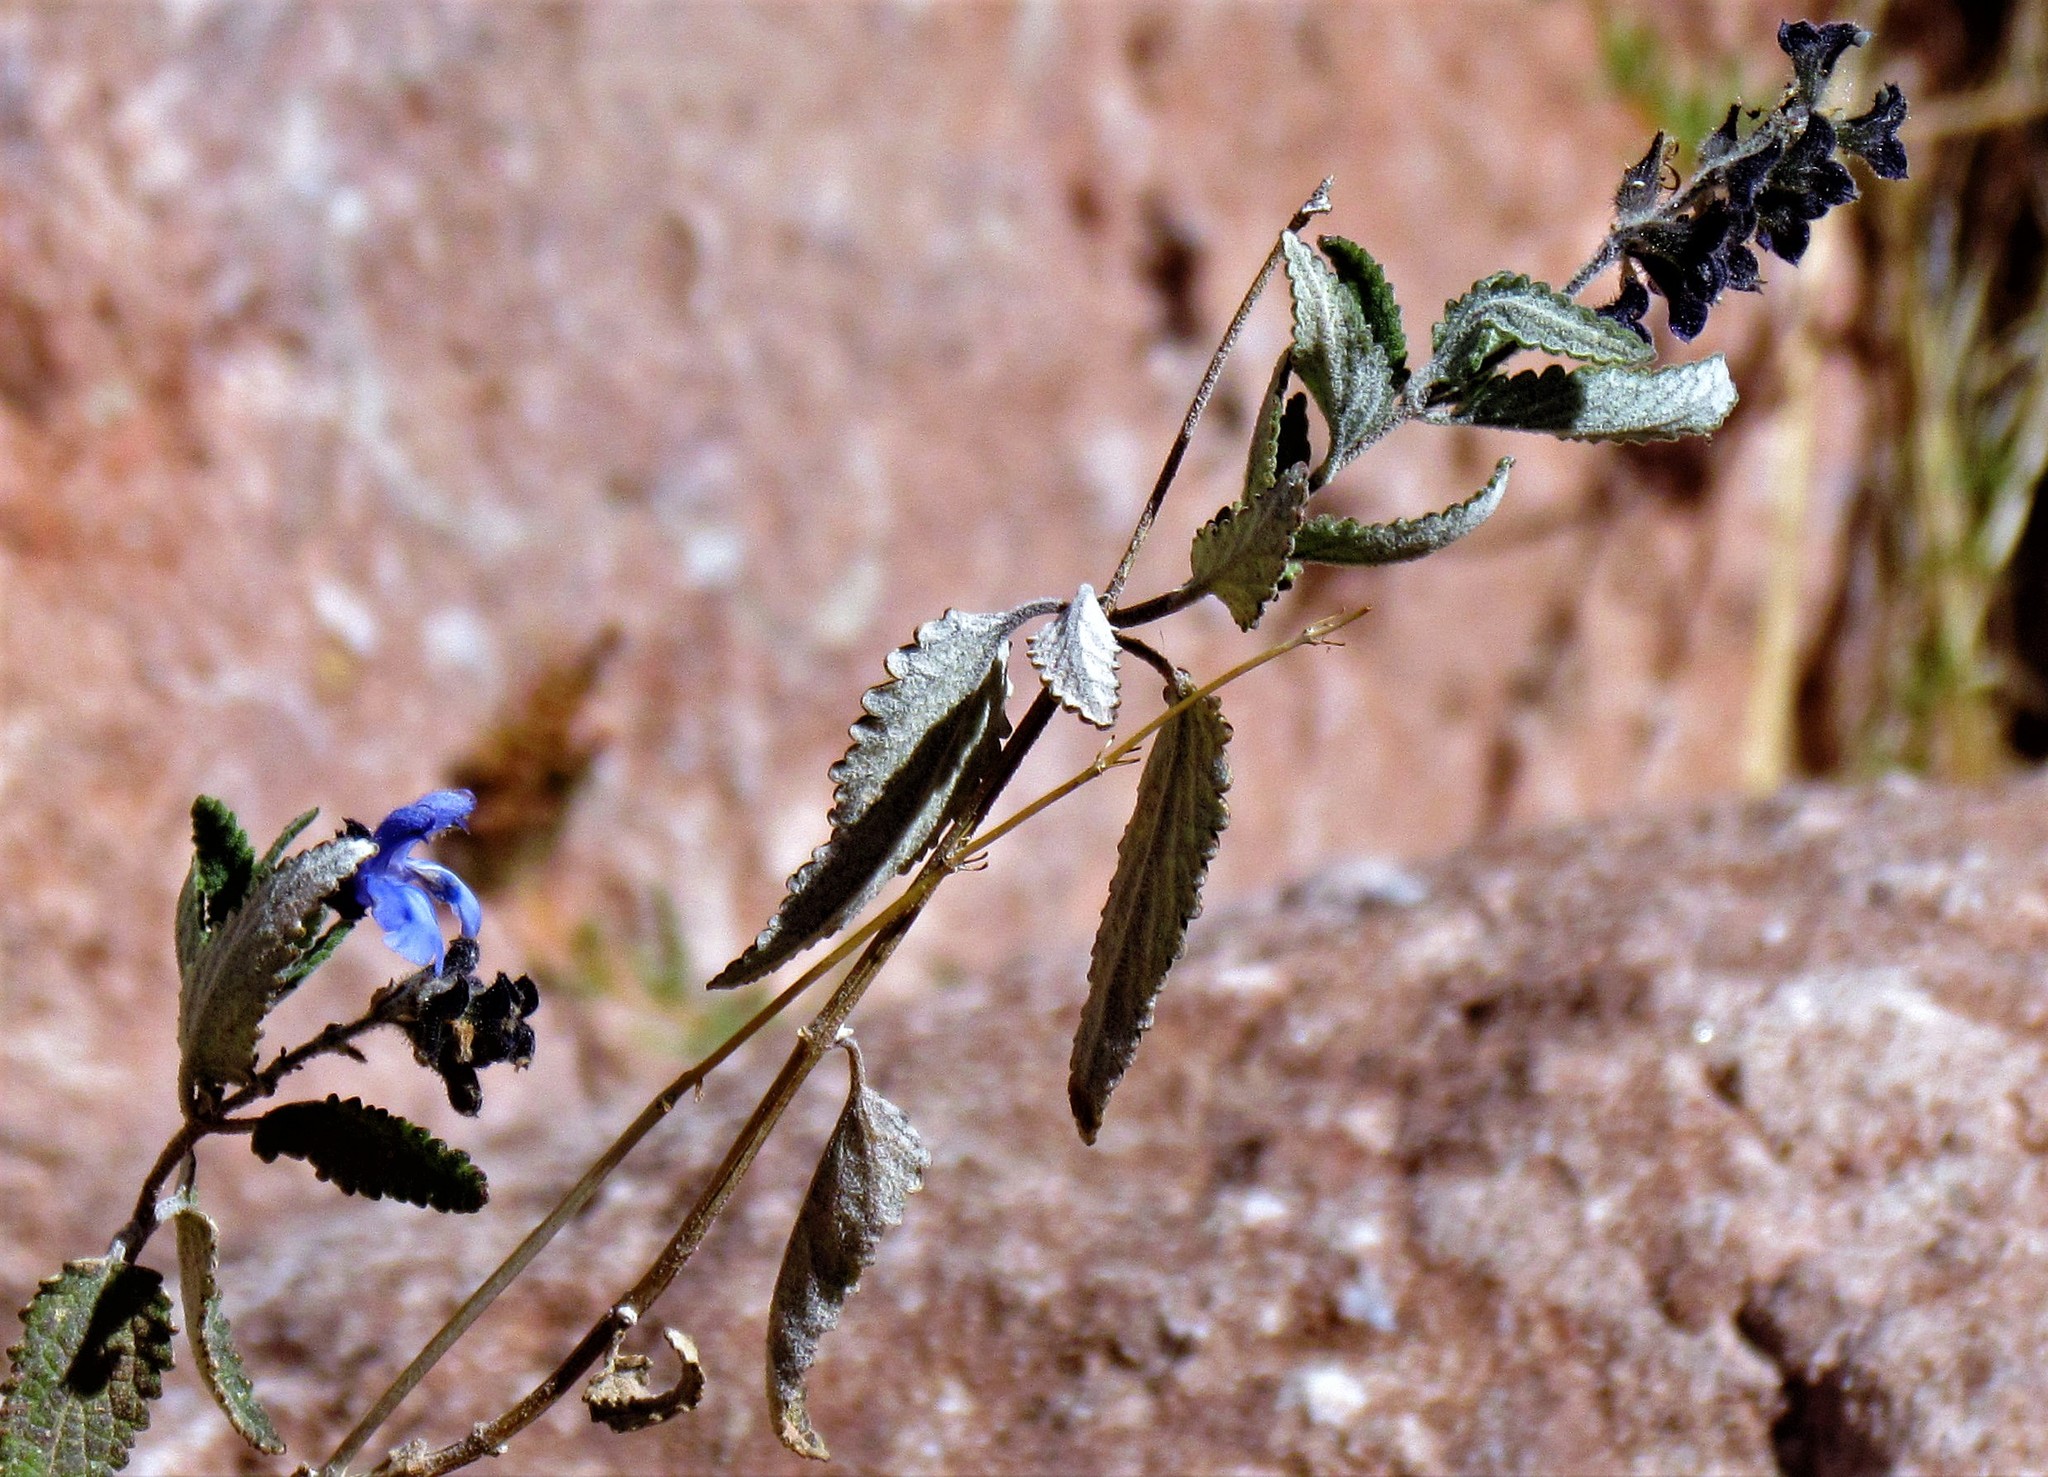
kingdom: Plantae
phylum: Tracheophyta
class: Magnoliopsida
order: Lamiales
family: Lamiaceae
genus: Salvia
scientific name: Salvia cuspidata
